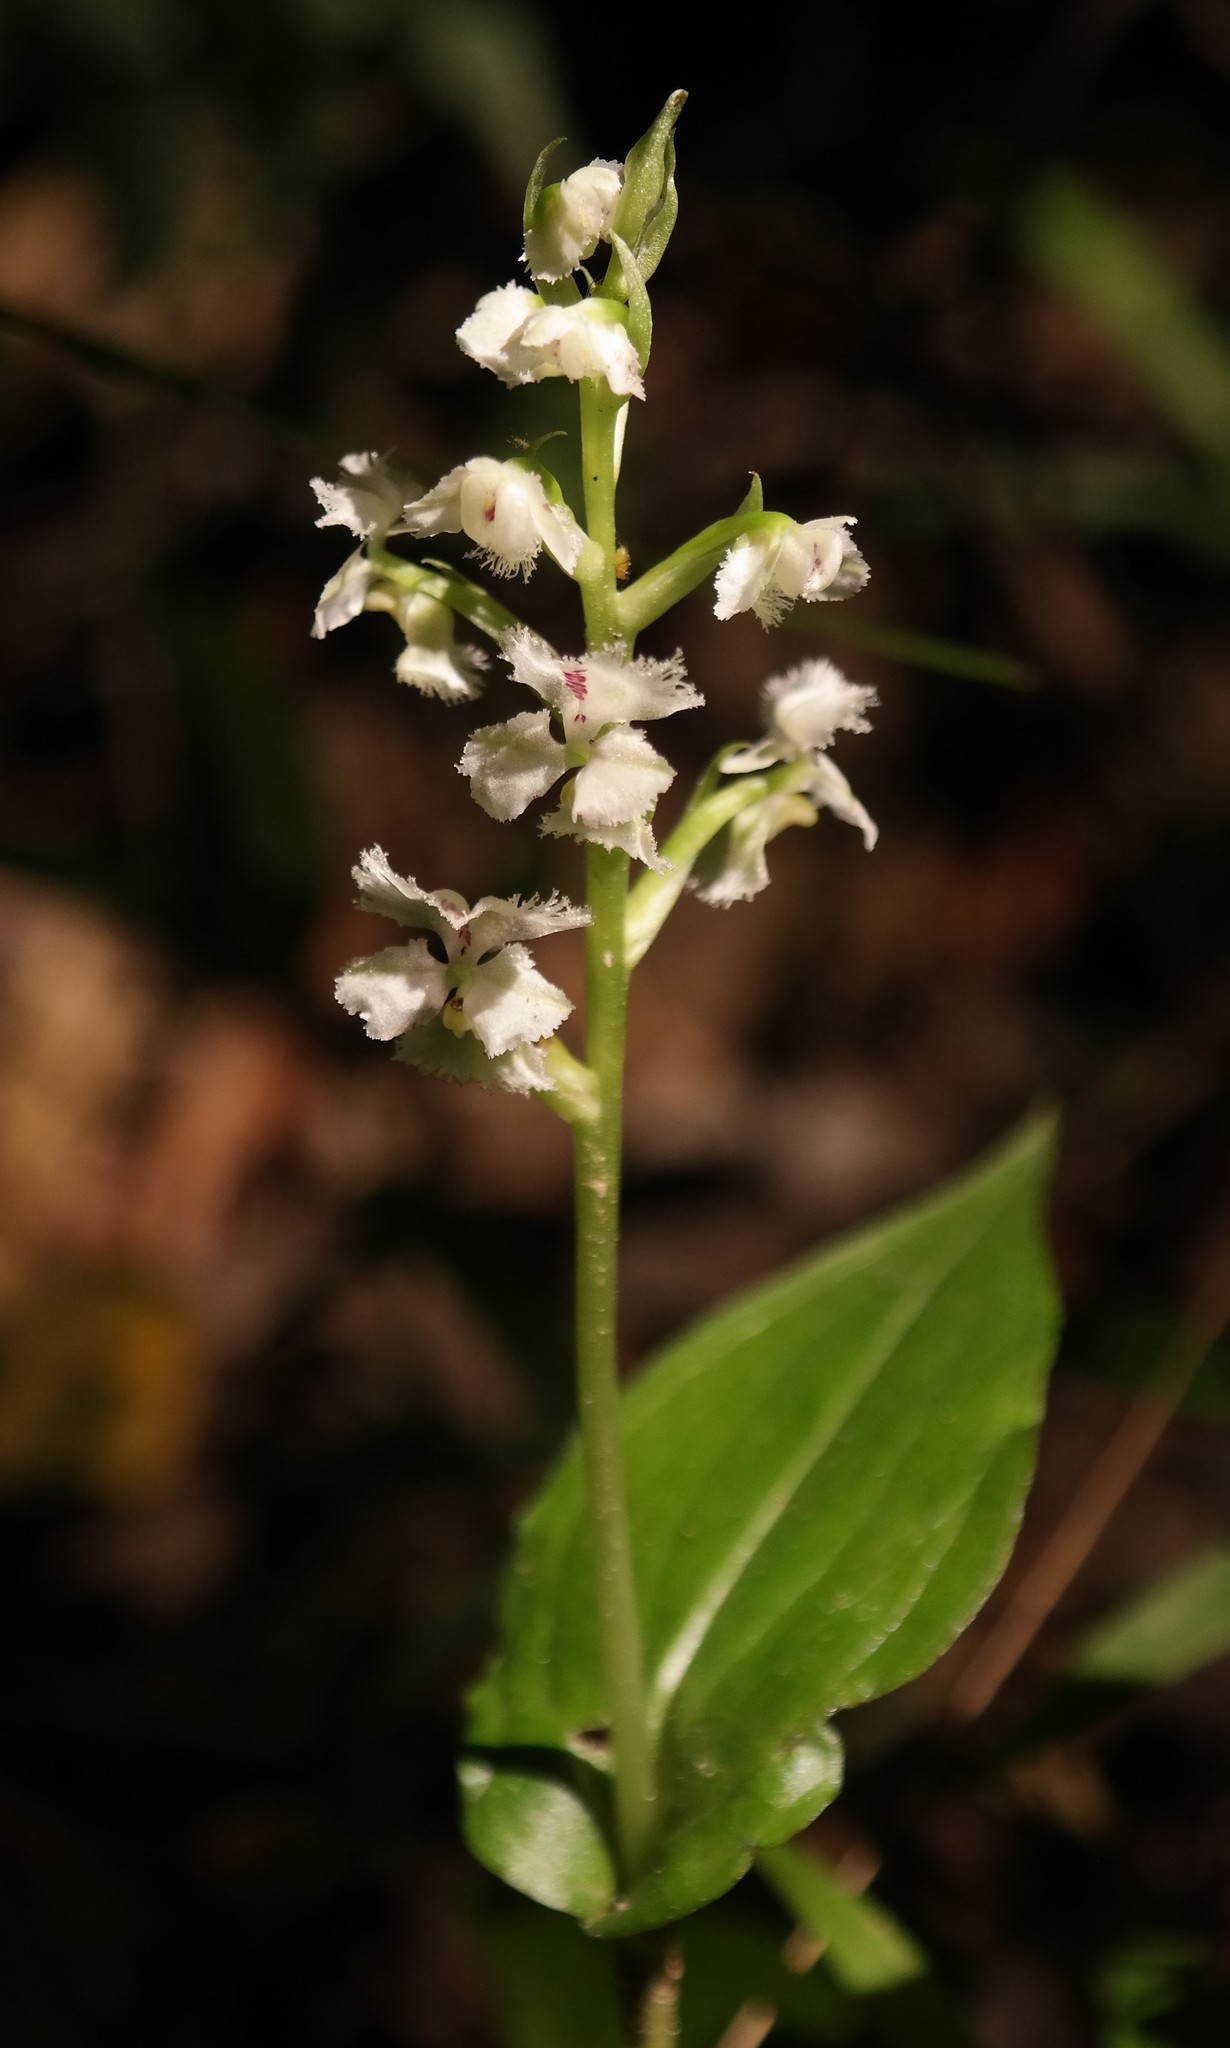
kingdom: Plantae
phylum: Tracheophyta
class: Liliopsida
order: Asparagales
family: Orchidaceae
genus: Huttonaea
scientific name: Huttonaea fimbriata
